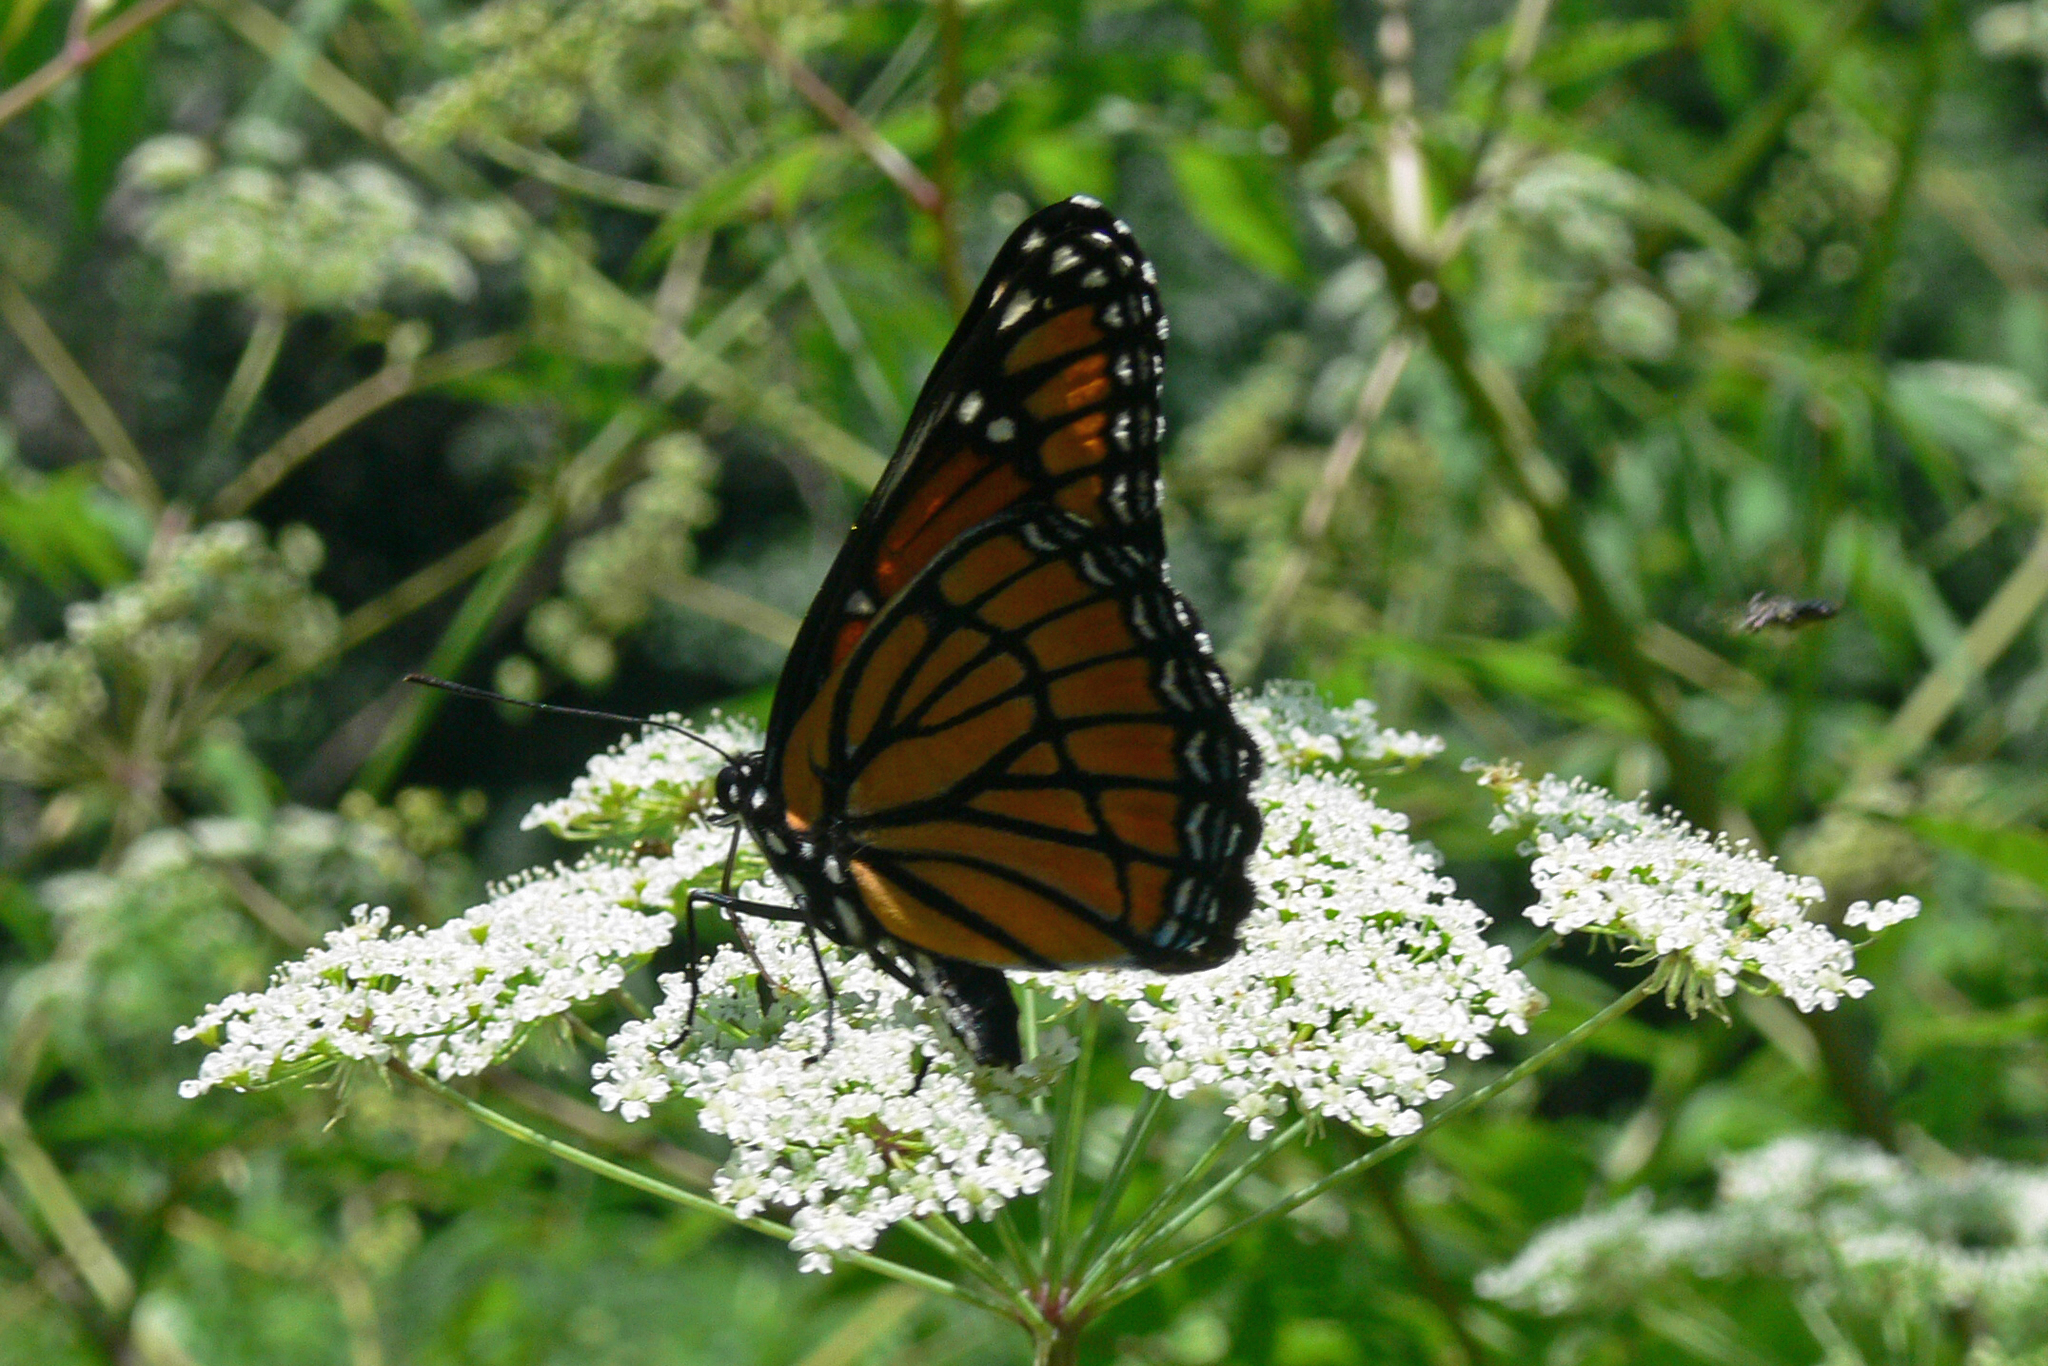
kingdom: Animalia
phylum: Arthropoda
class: Insecta
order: Lepidoptera
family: Nymphalidae
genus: Limenitis
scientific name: Limenitis archippus
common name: Viceroy
